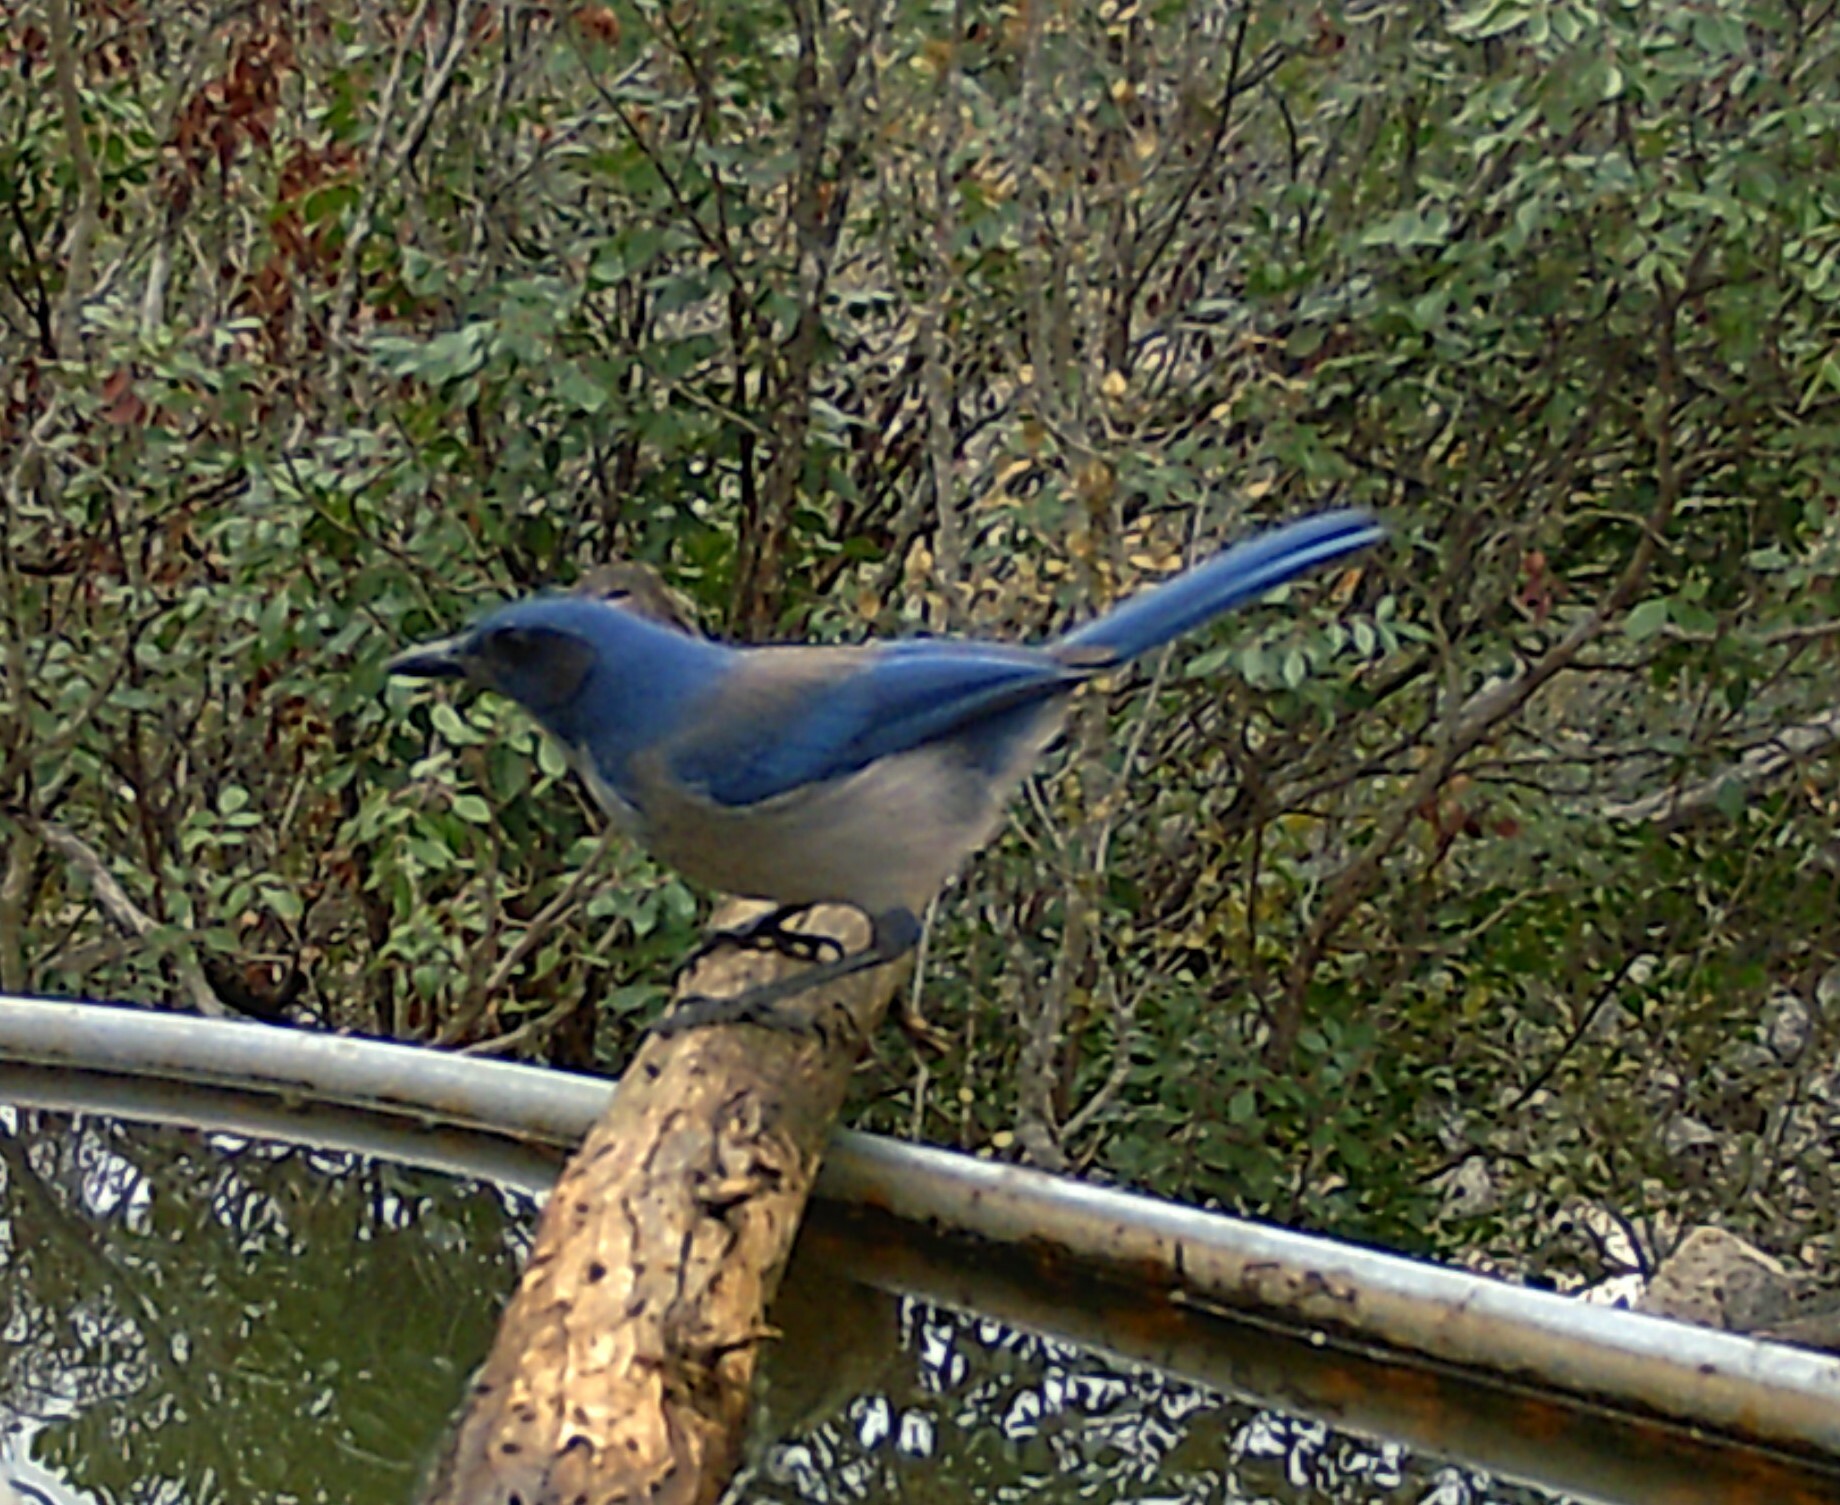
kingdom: Animalia
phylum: Chordata
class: Aves
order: Passeriformes
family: Corvidae
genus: Aphelocoma
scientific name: Aphelocoma woodhouseii
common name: Woodhouse's scrub-jay
